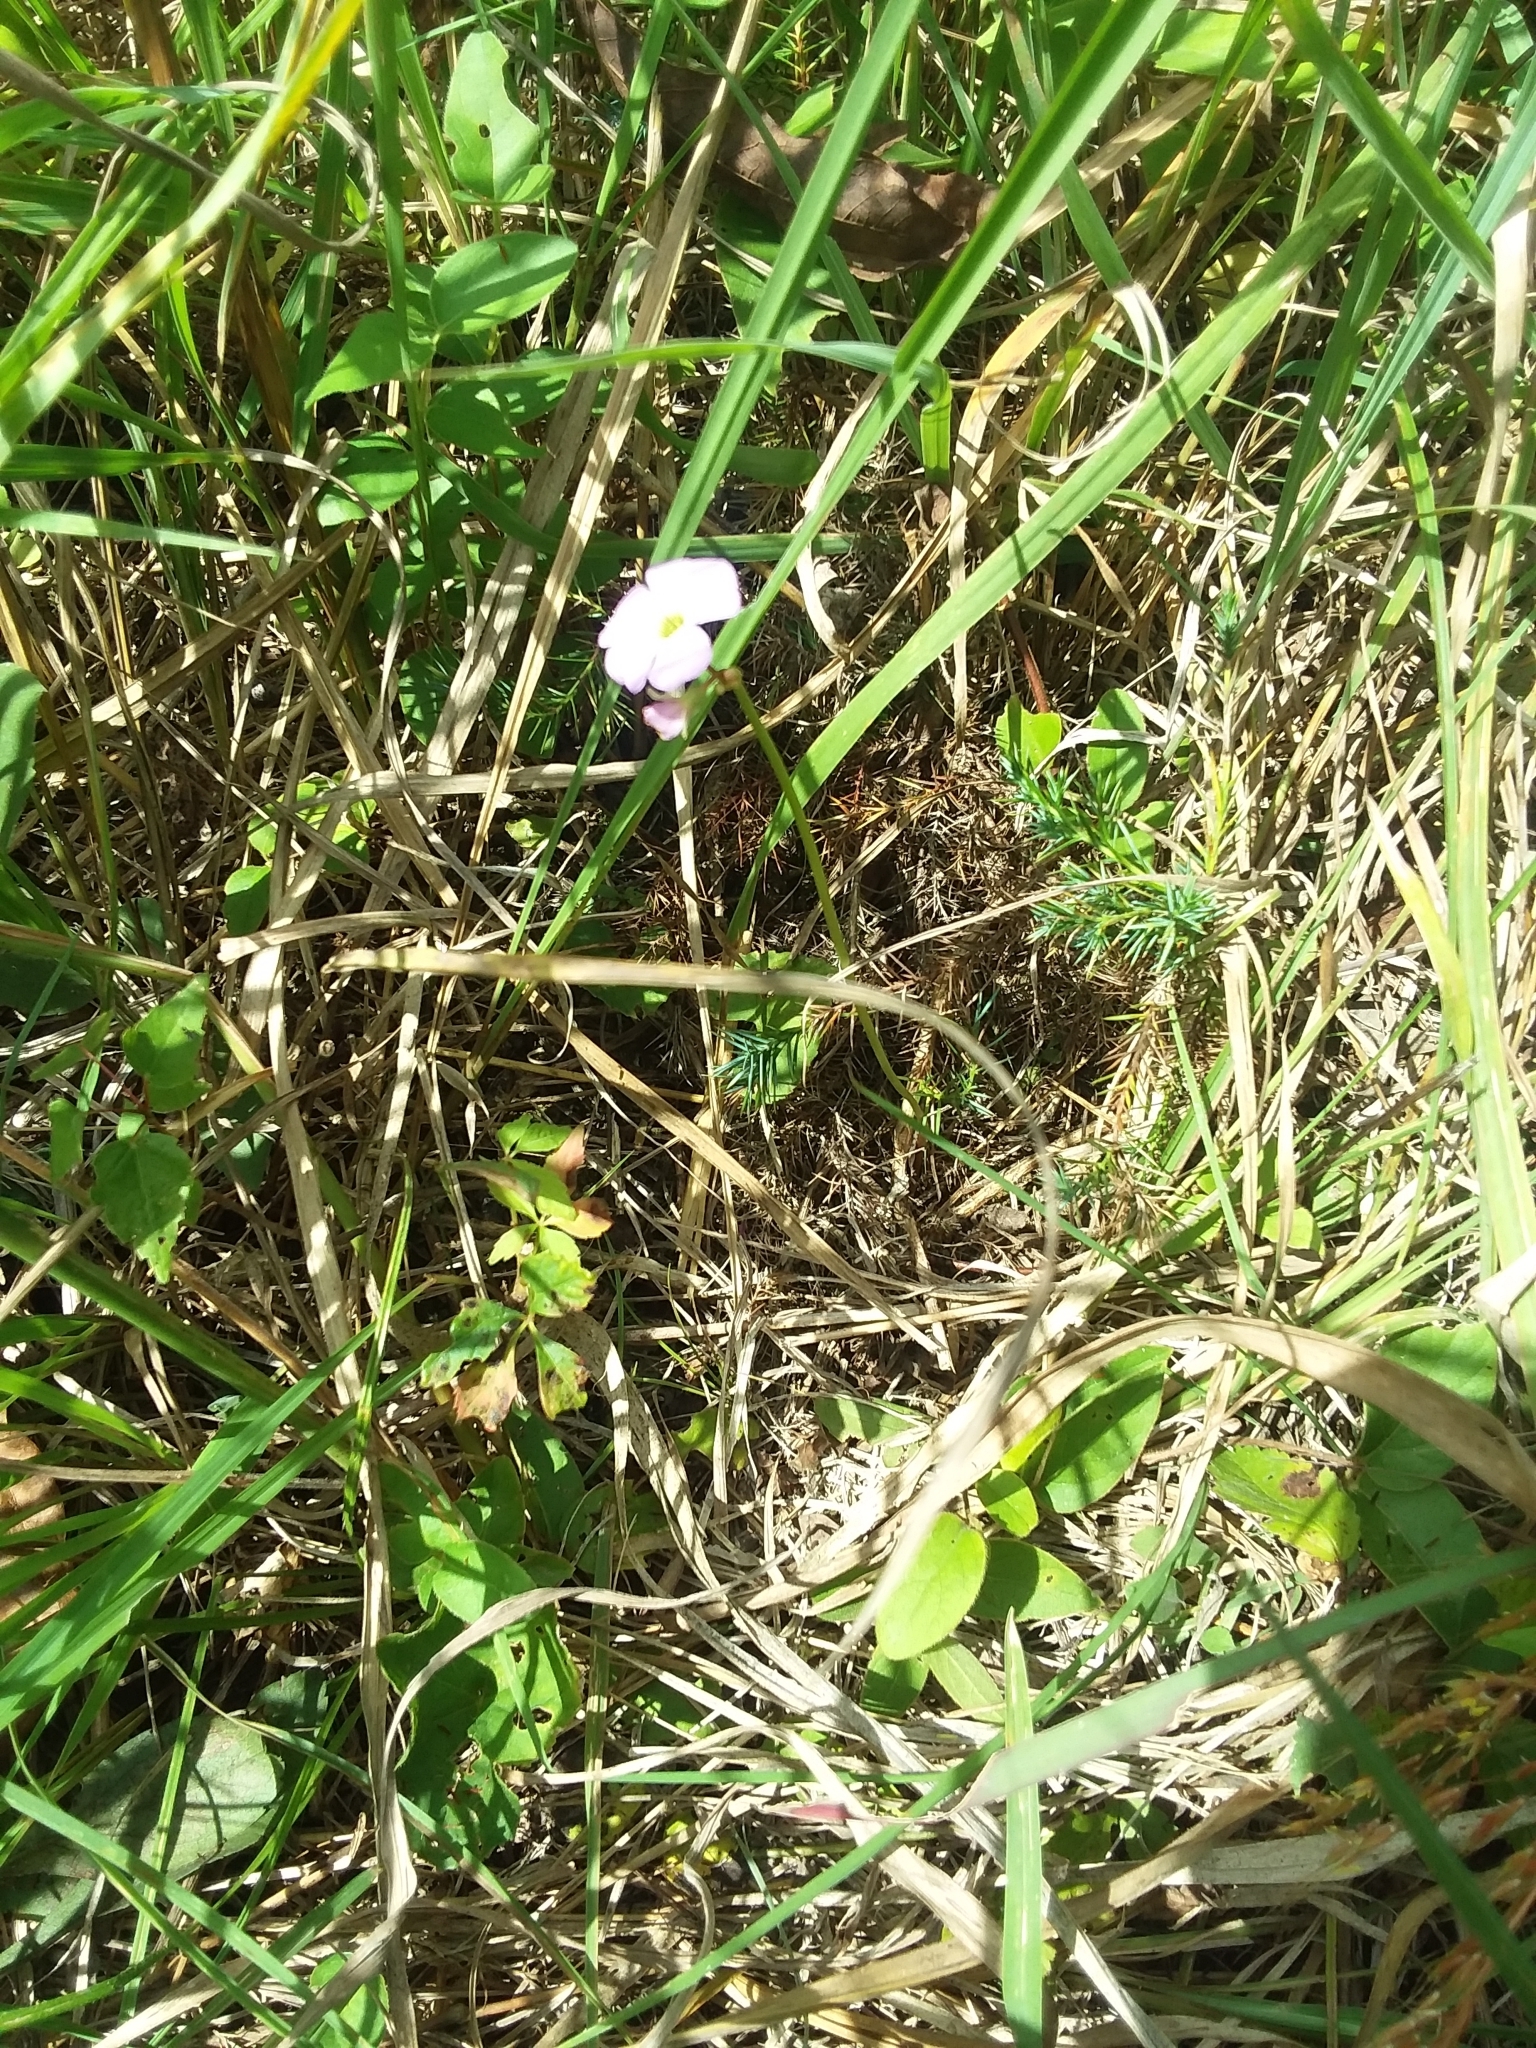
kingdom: Plantae
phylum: Tracheophyta
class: Magnoliopsida
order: Oxalidales
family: Oxalidaceae
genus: Oxalis
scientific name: Oxalis violacea
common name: Violet wood-sorrel
